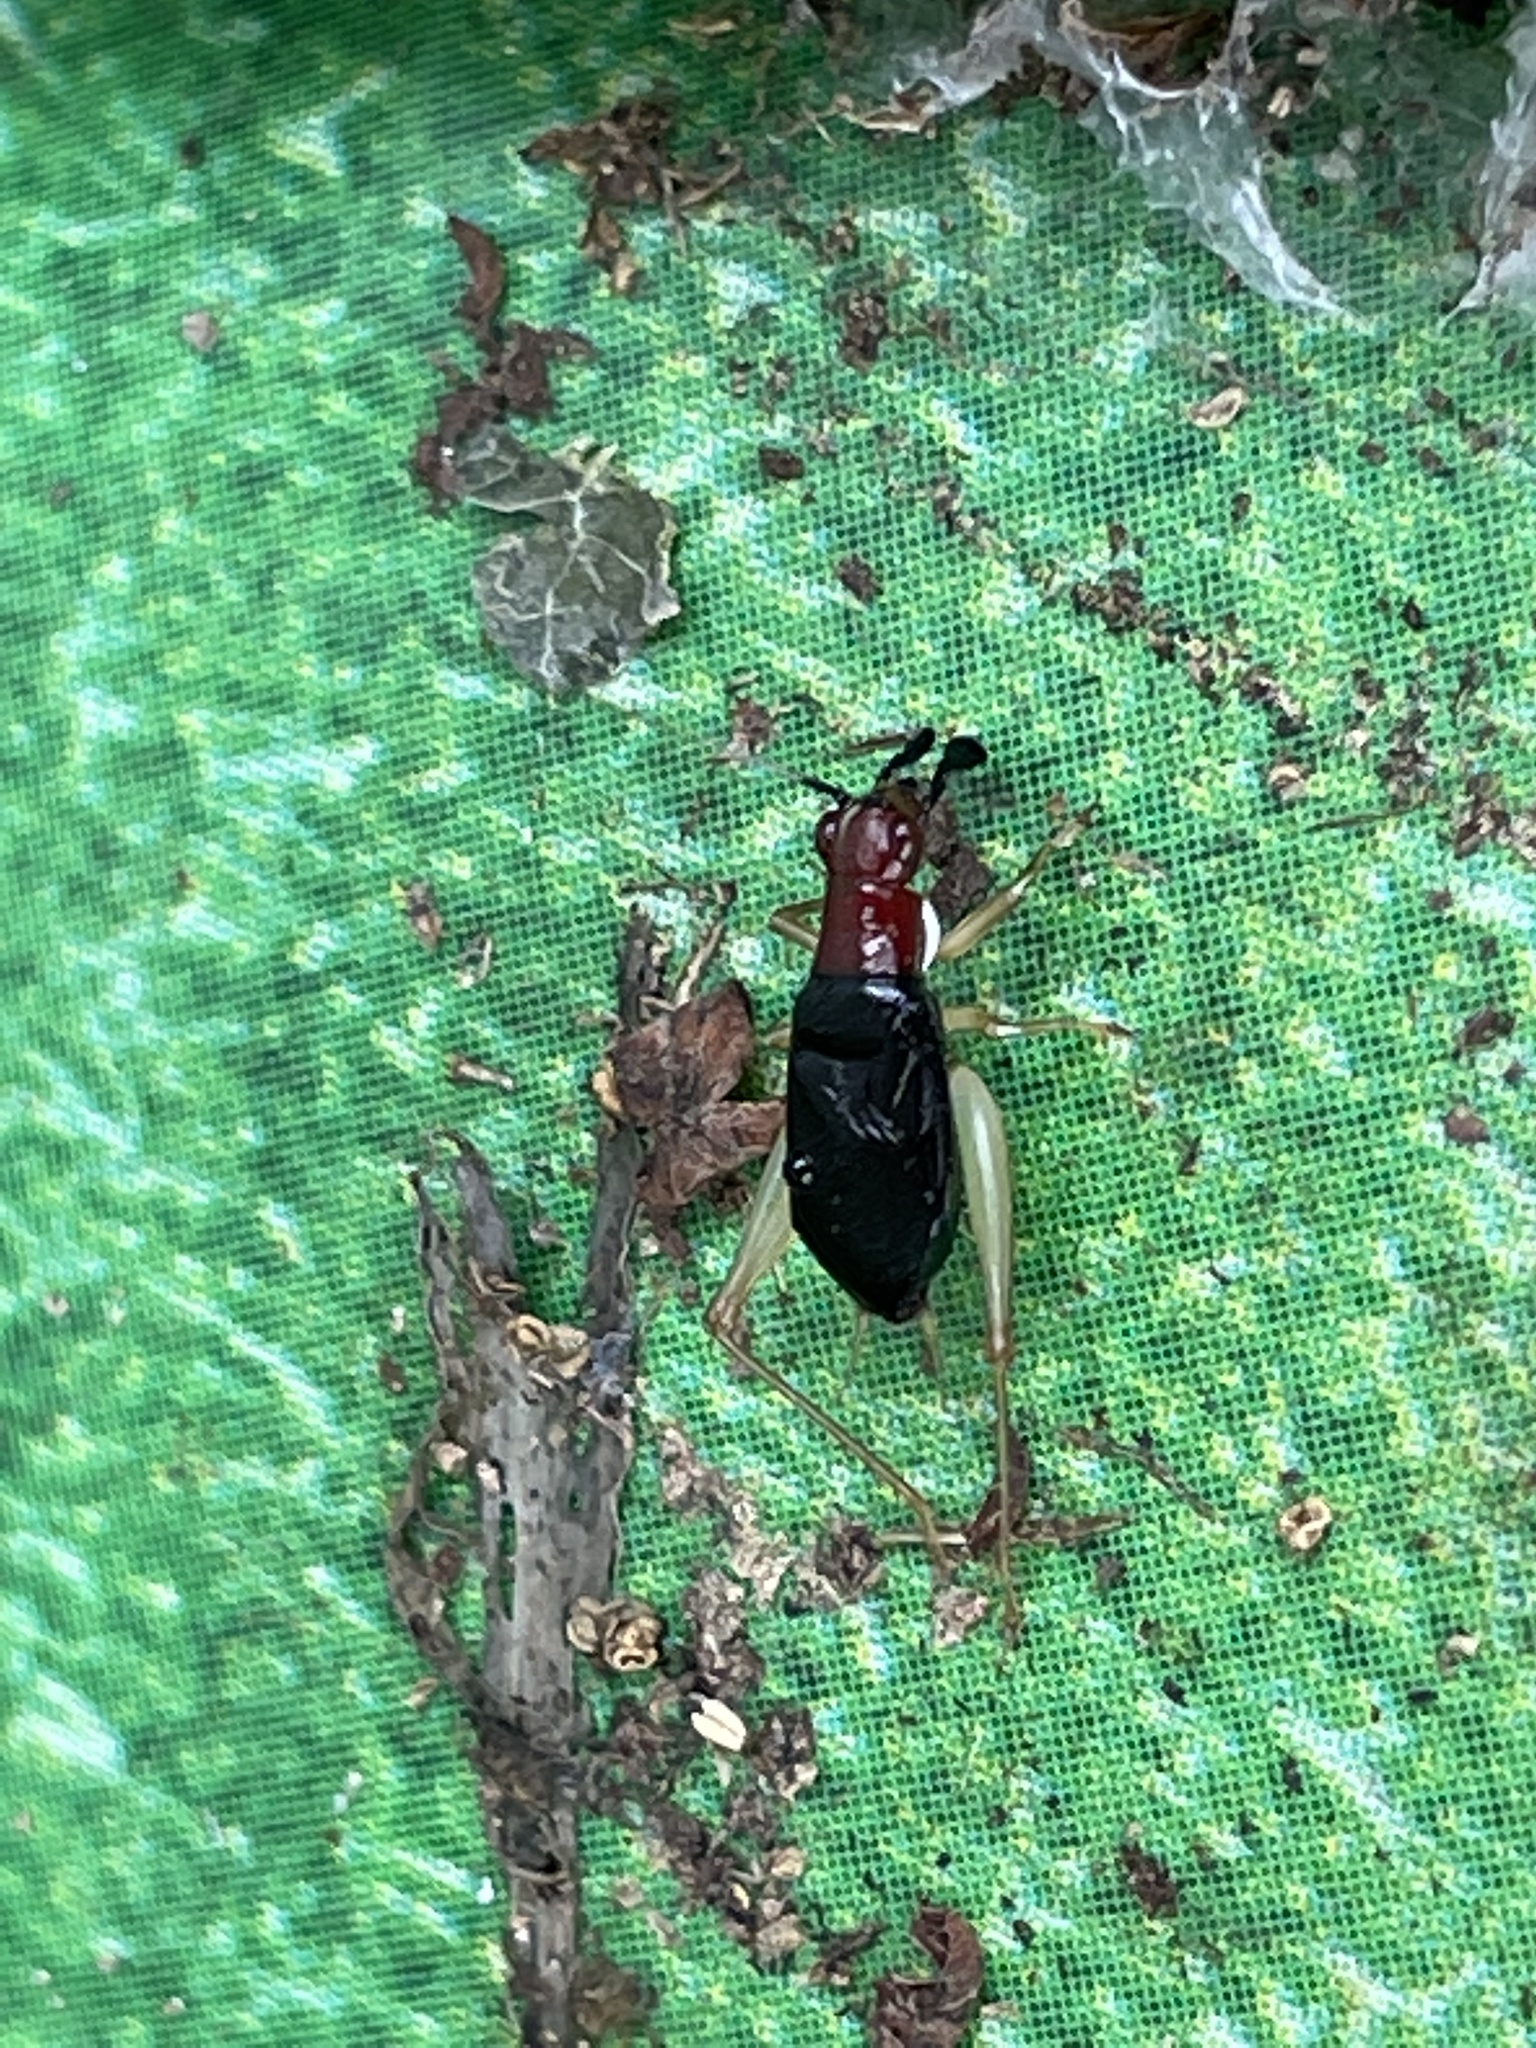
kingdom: Animalia
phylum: Arthropoda
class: Insecta
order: Orthoptera
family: Trigonidiidae
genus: Phyllopalpus
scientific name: Phyllopalpus pulchellus
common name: Handsome trig
